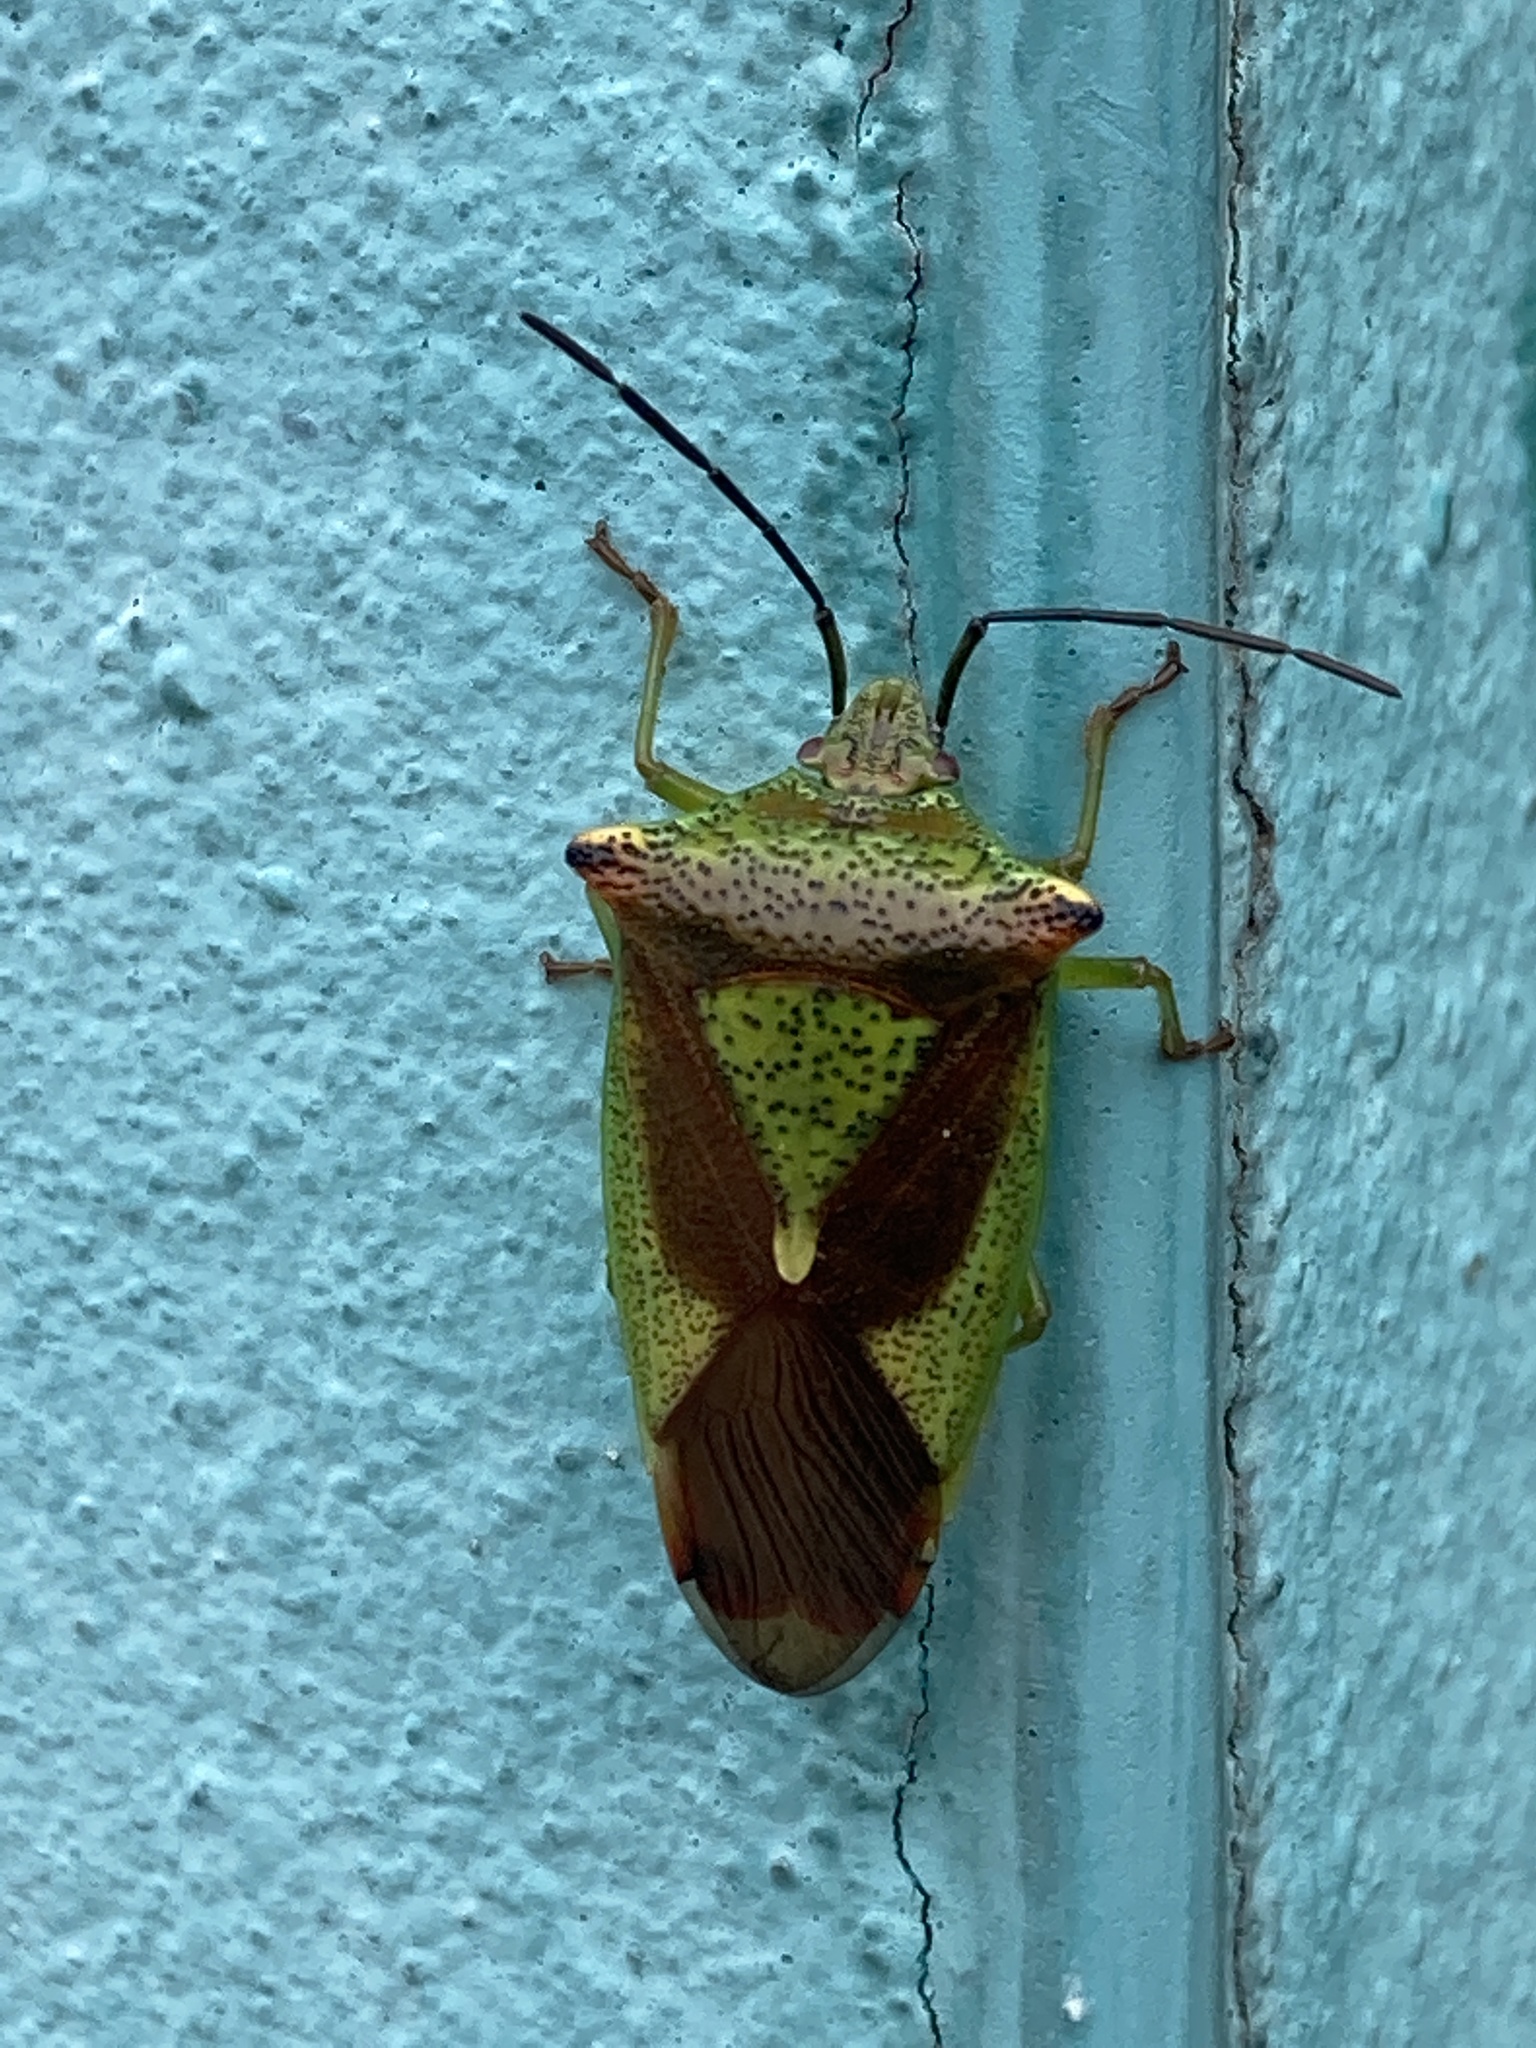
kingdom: Animalia
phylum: Arthropoda
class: Insecta
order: Hemiptera
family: Acanthosomatidae
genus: Acanthosoma
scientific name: Acanthosoma haemorrhoidale
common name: Hawthorn shieldbug
